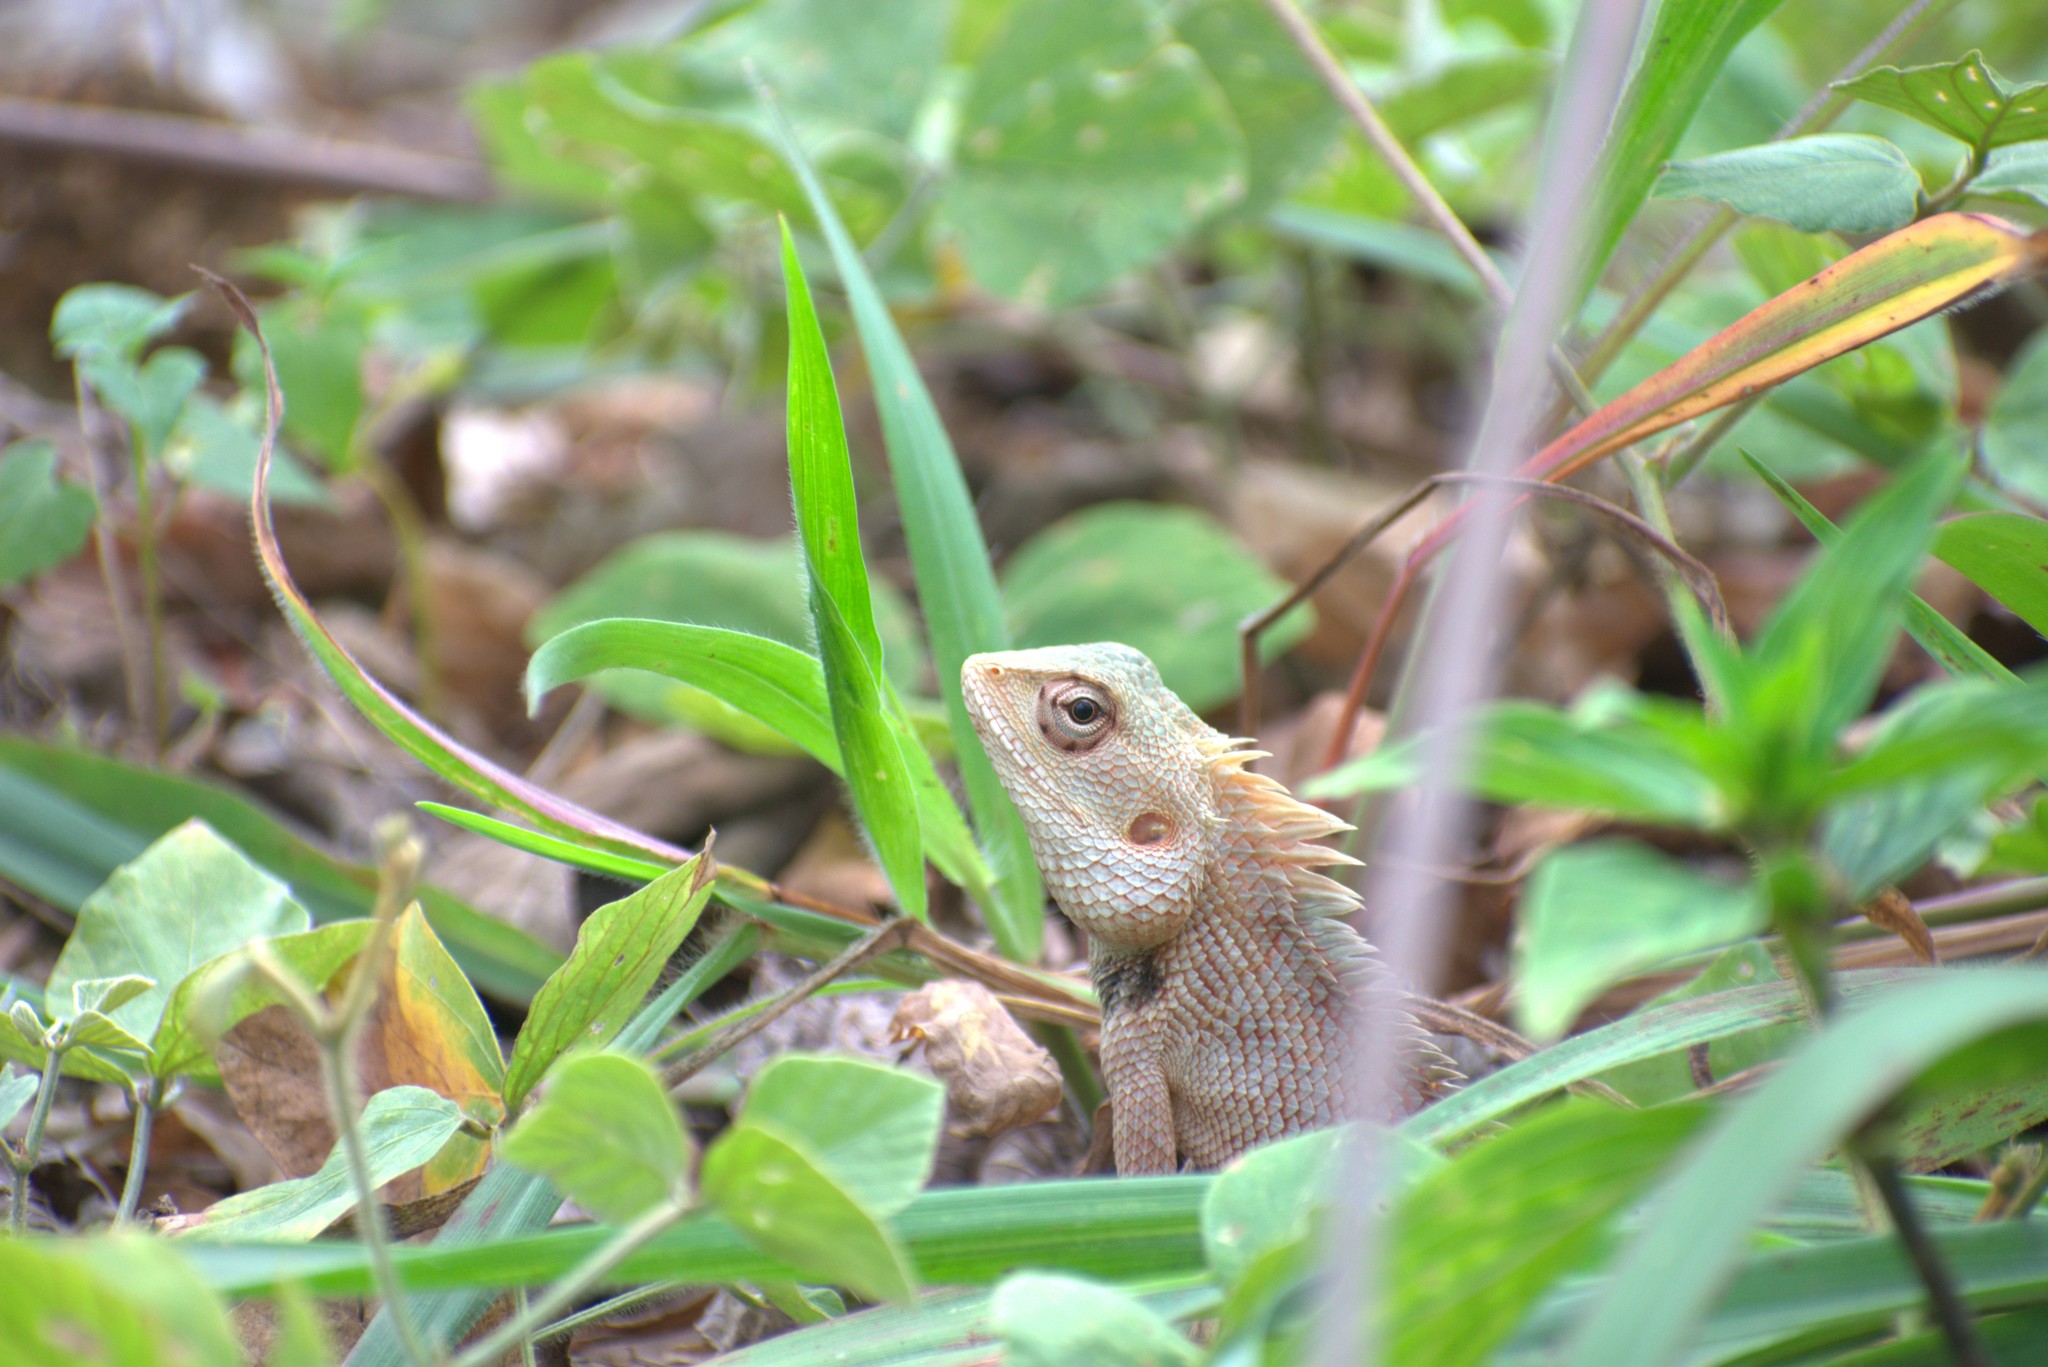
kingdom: Animalia
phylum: Chordata
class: Squamata
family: Agamidae
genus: Calotes
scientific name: Calotes versicolor
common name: Oriental garden lizard
